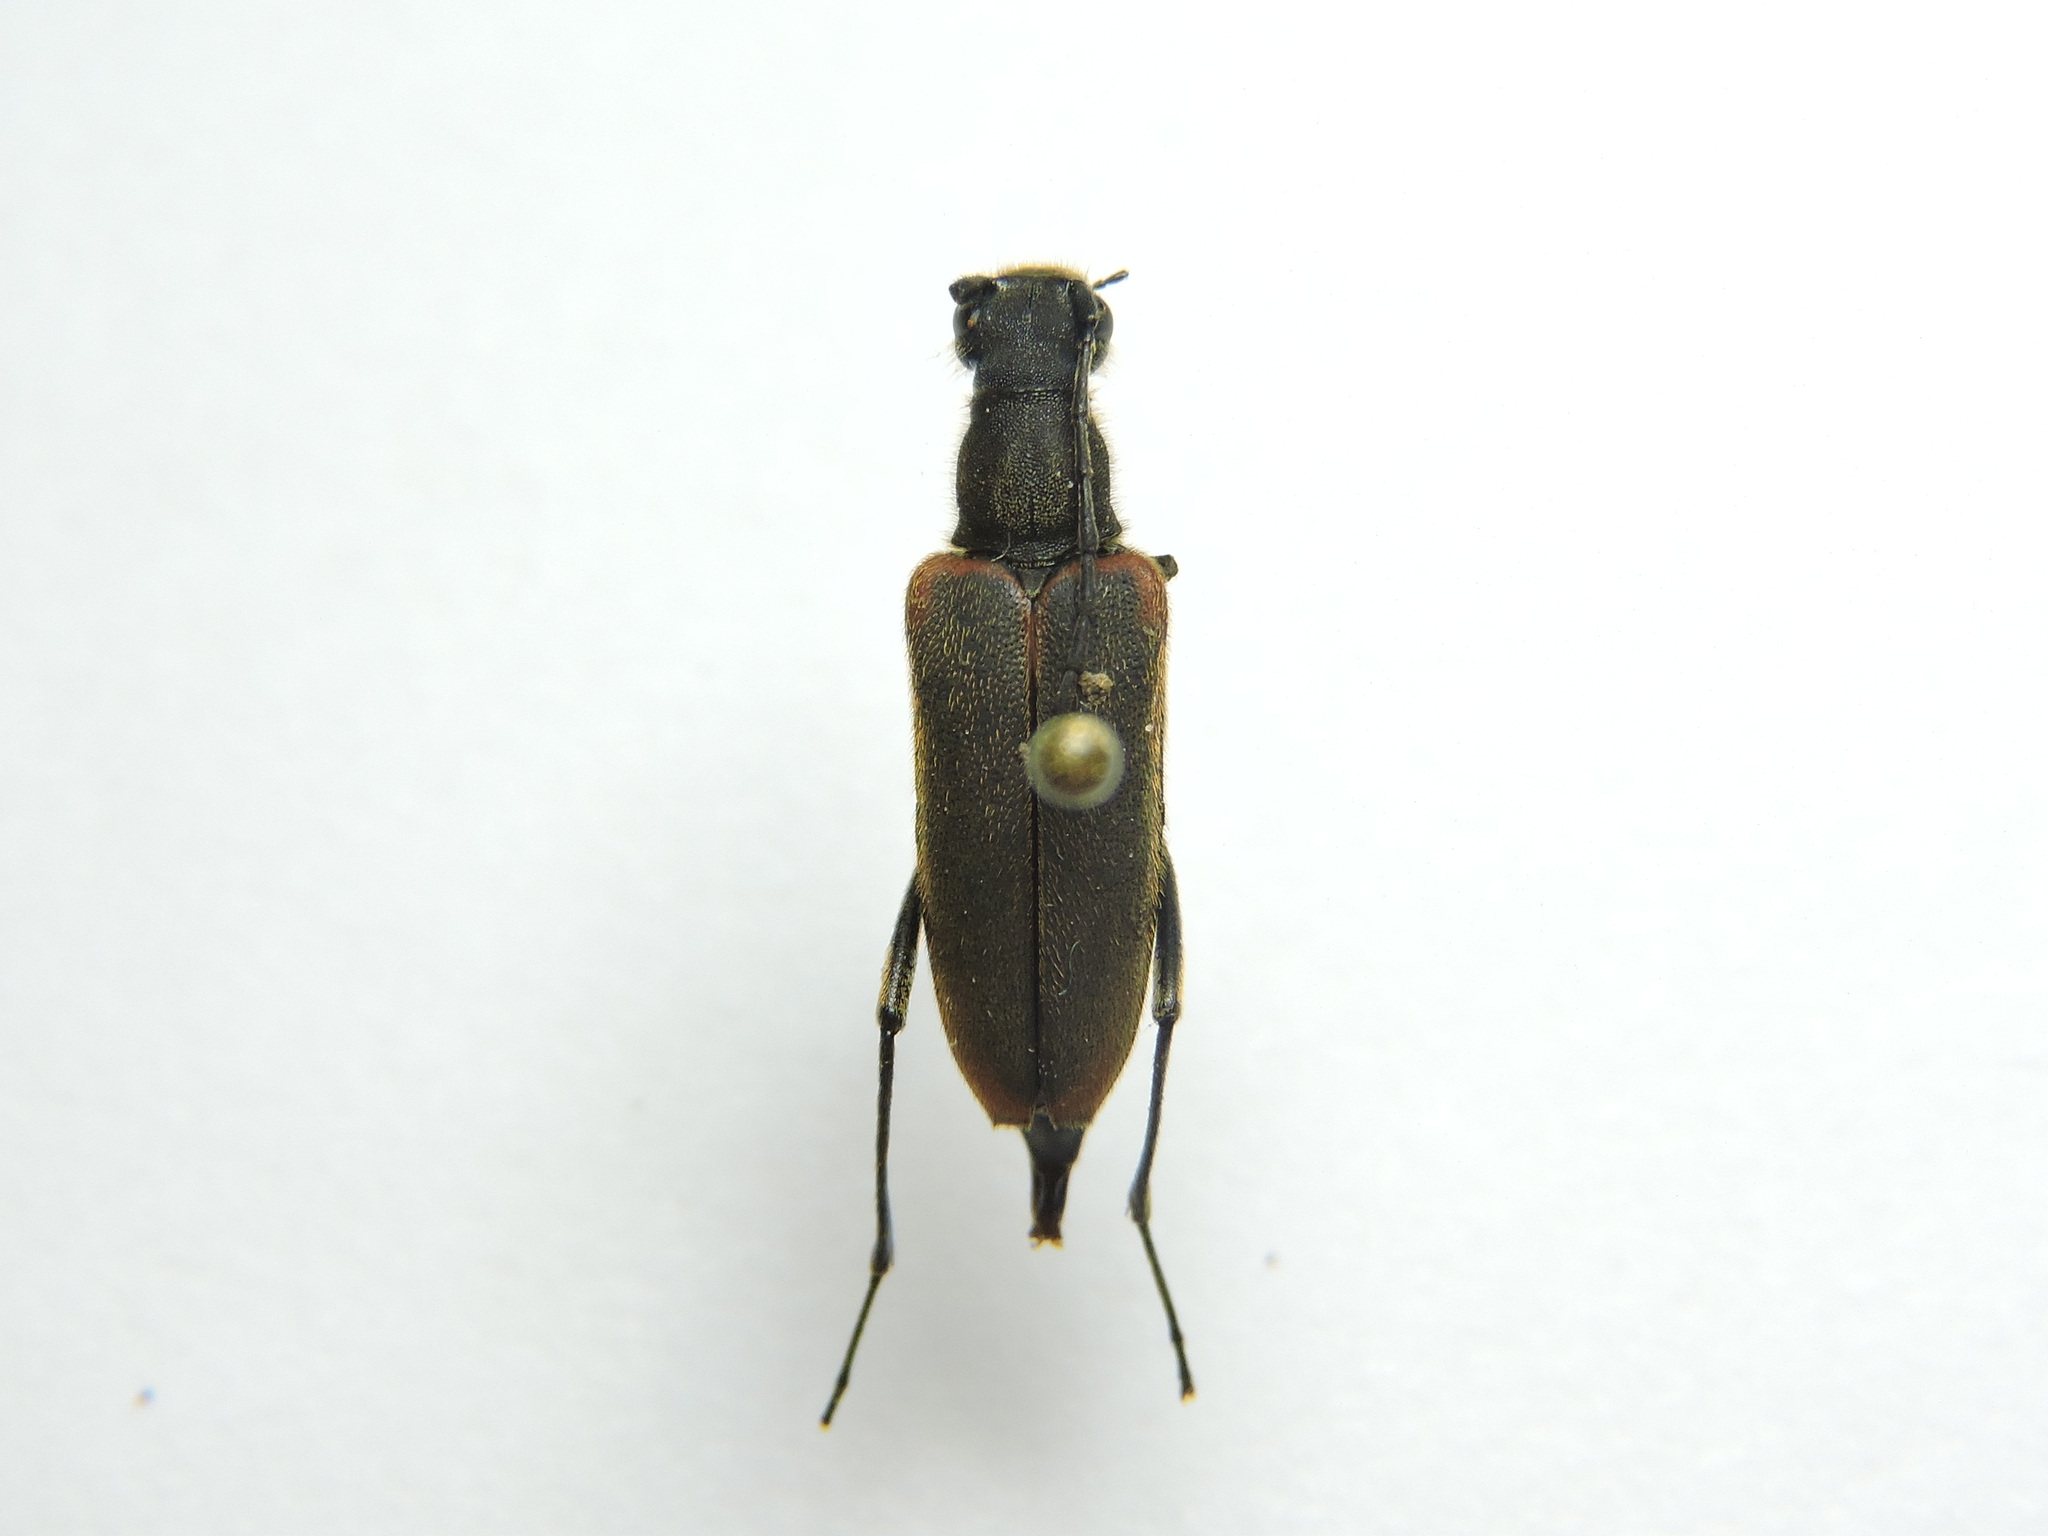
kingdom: Animalia
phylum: Arthropoda
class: Insecta
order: Coleoptera
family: Cerambycidae
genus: Anastrangalia
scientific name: Anastrangalia dubia
